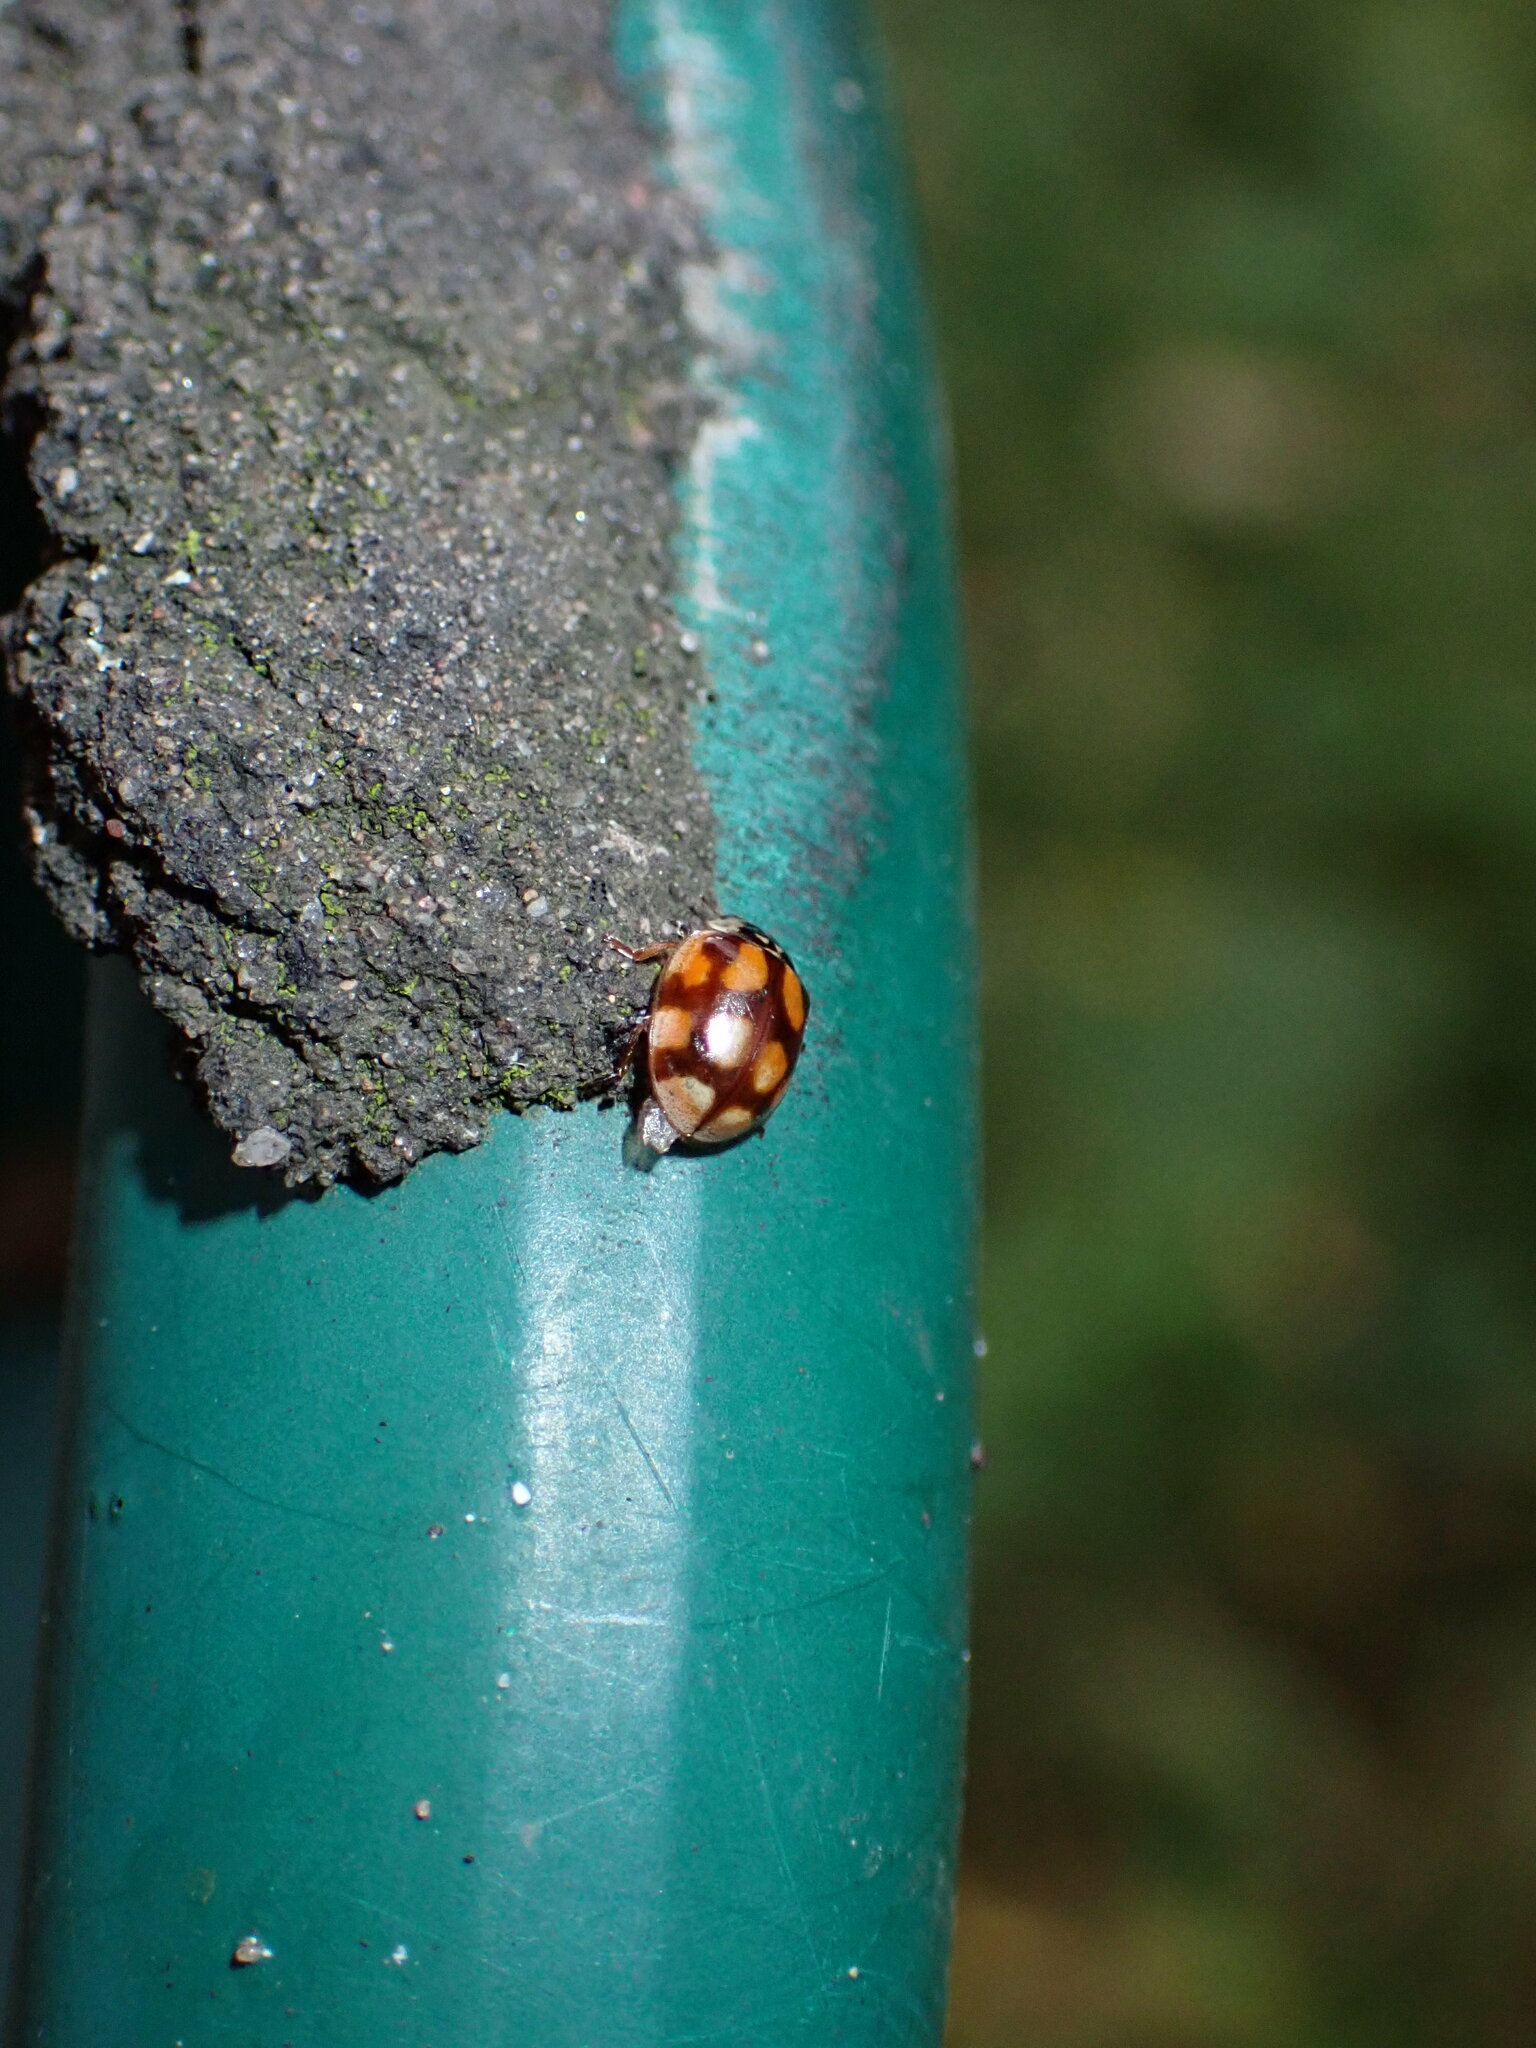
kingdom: Animalia
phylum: Arthropoda
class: Insecta
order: Coleoptera
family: Coccinellidae
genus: Adalia
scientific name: Adalia decempunctata
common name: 10-spot ladybird
